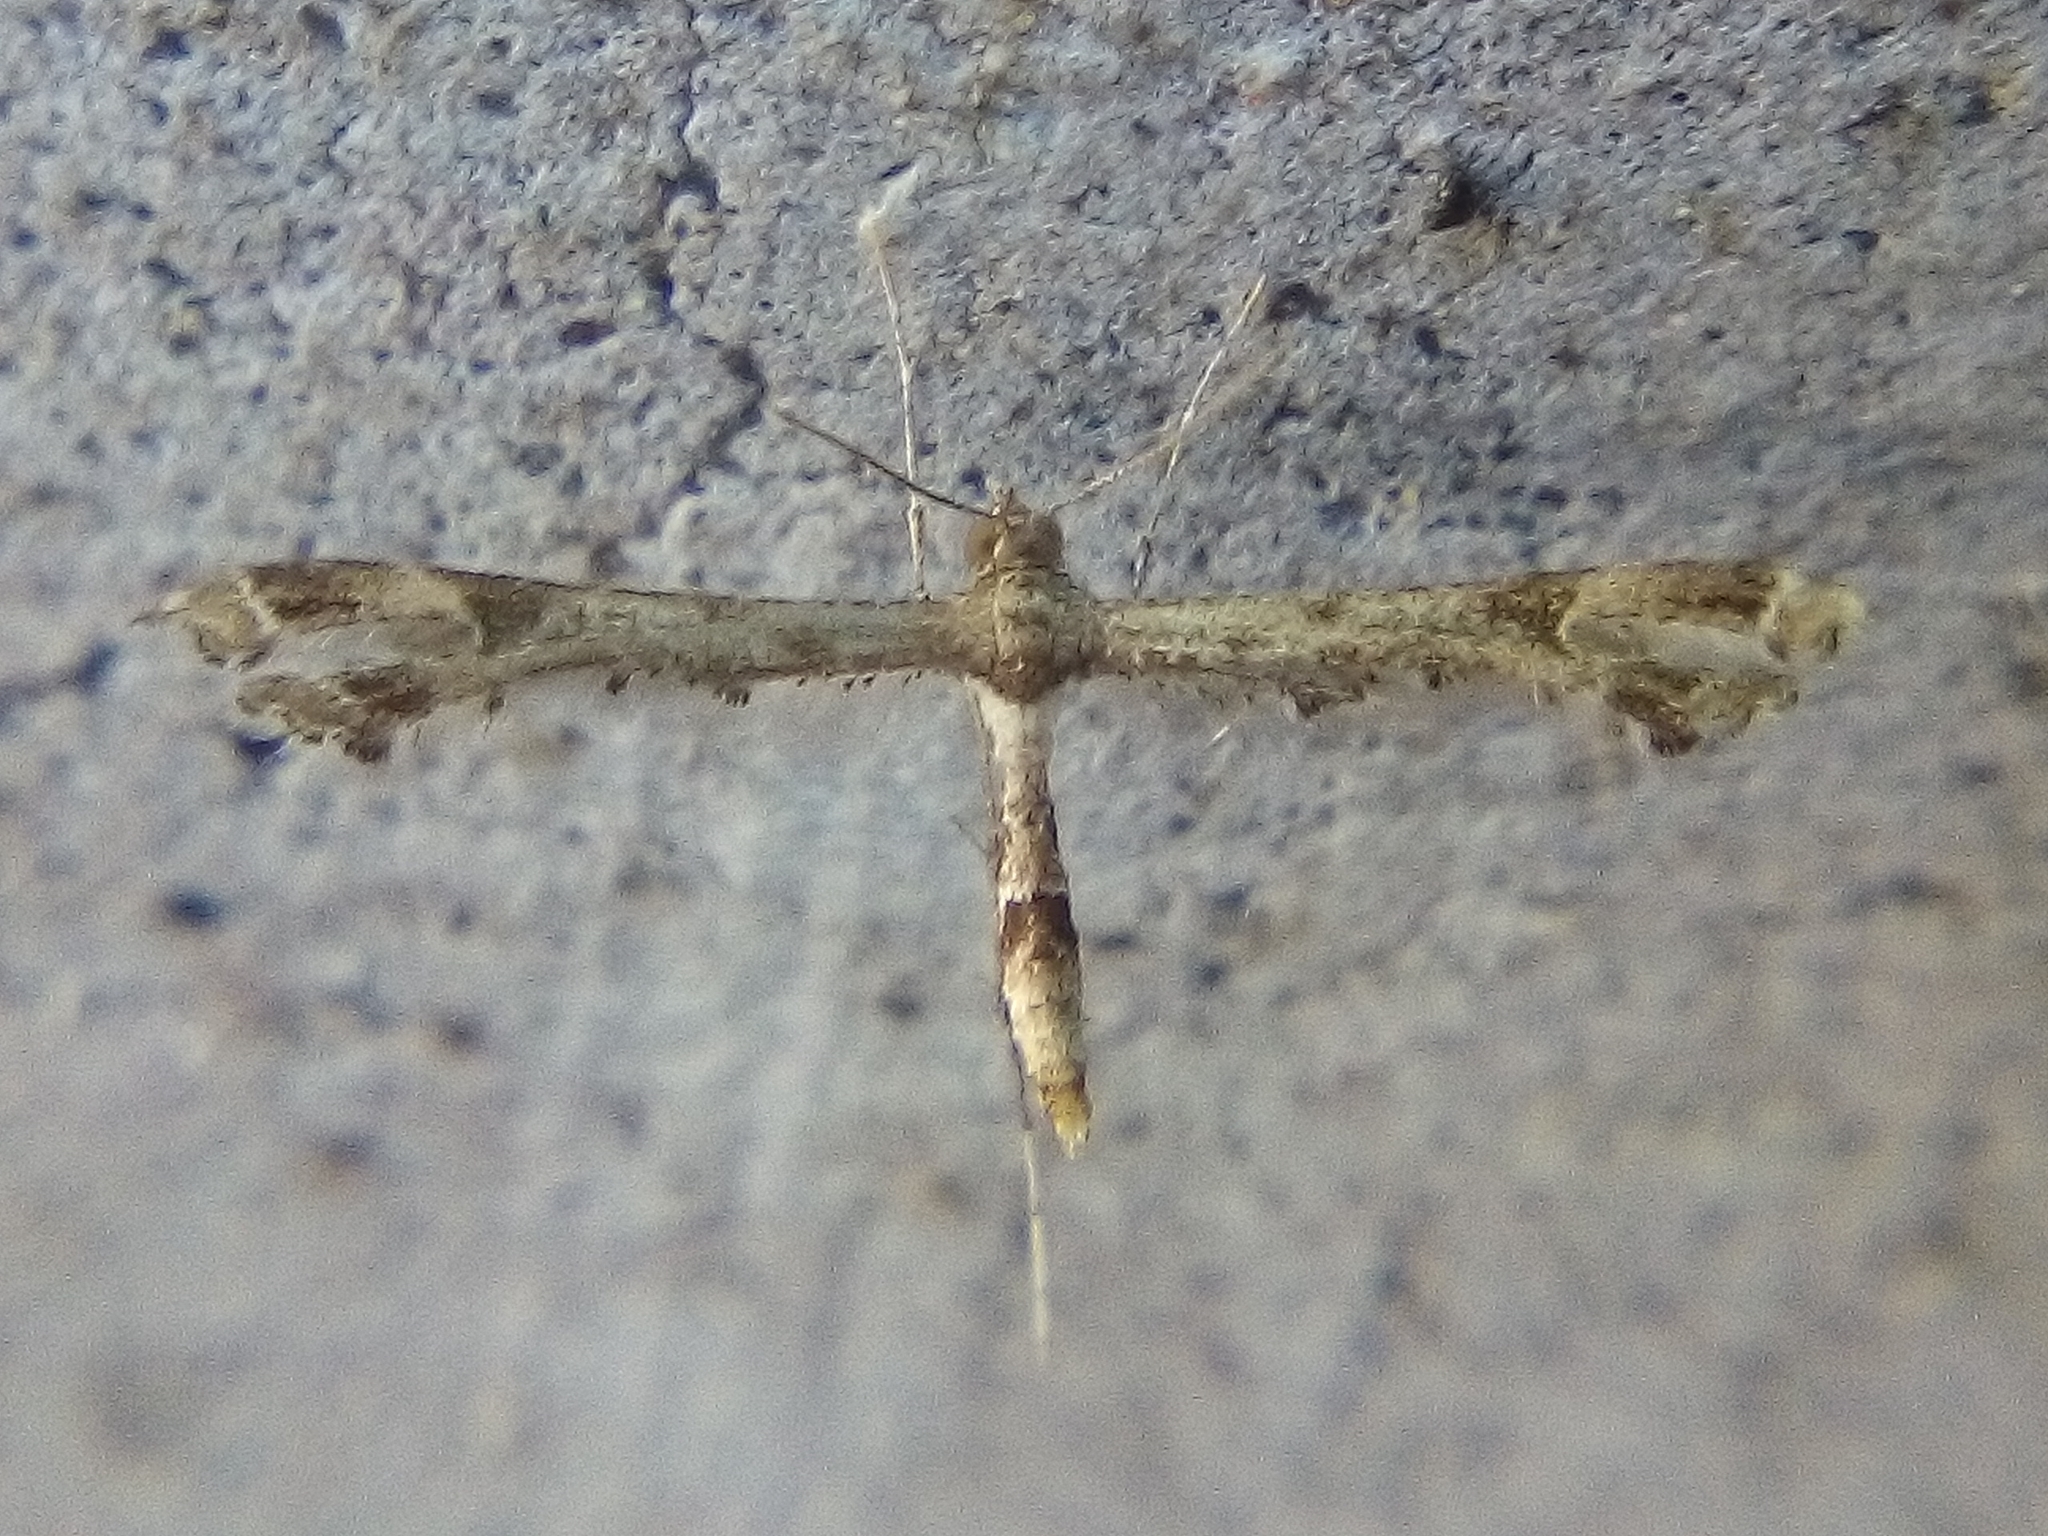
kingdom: Animalia
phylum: Arthropoda
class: Insecta
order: Lepidoptera
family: Pterophoridae
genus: Lantanophaga
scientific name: Lantanophaga pusillidactylus
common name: Moth
